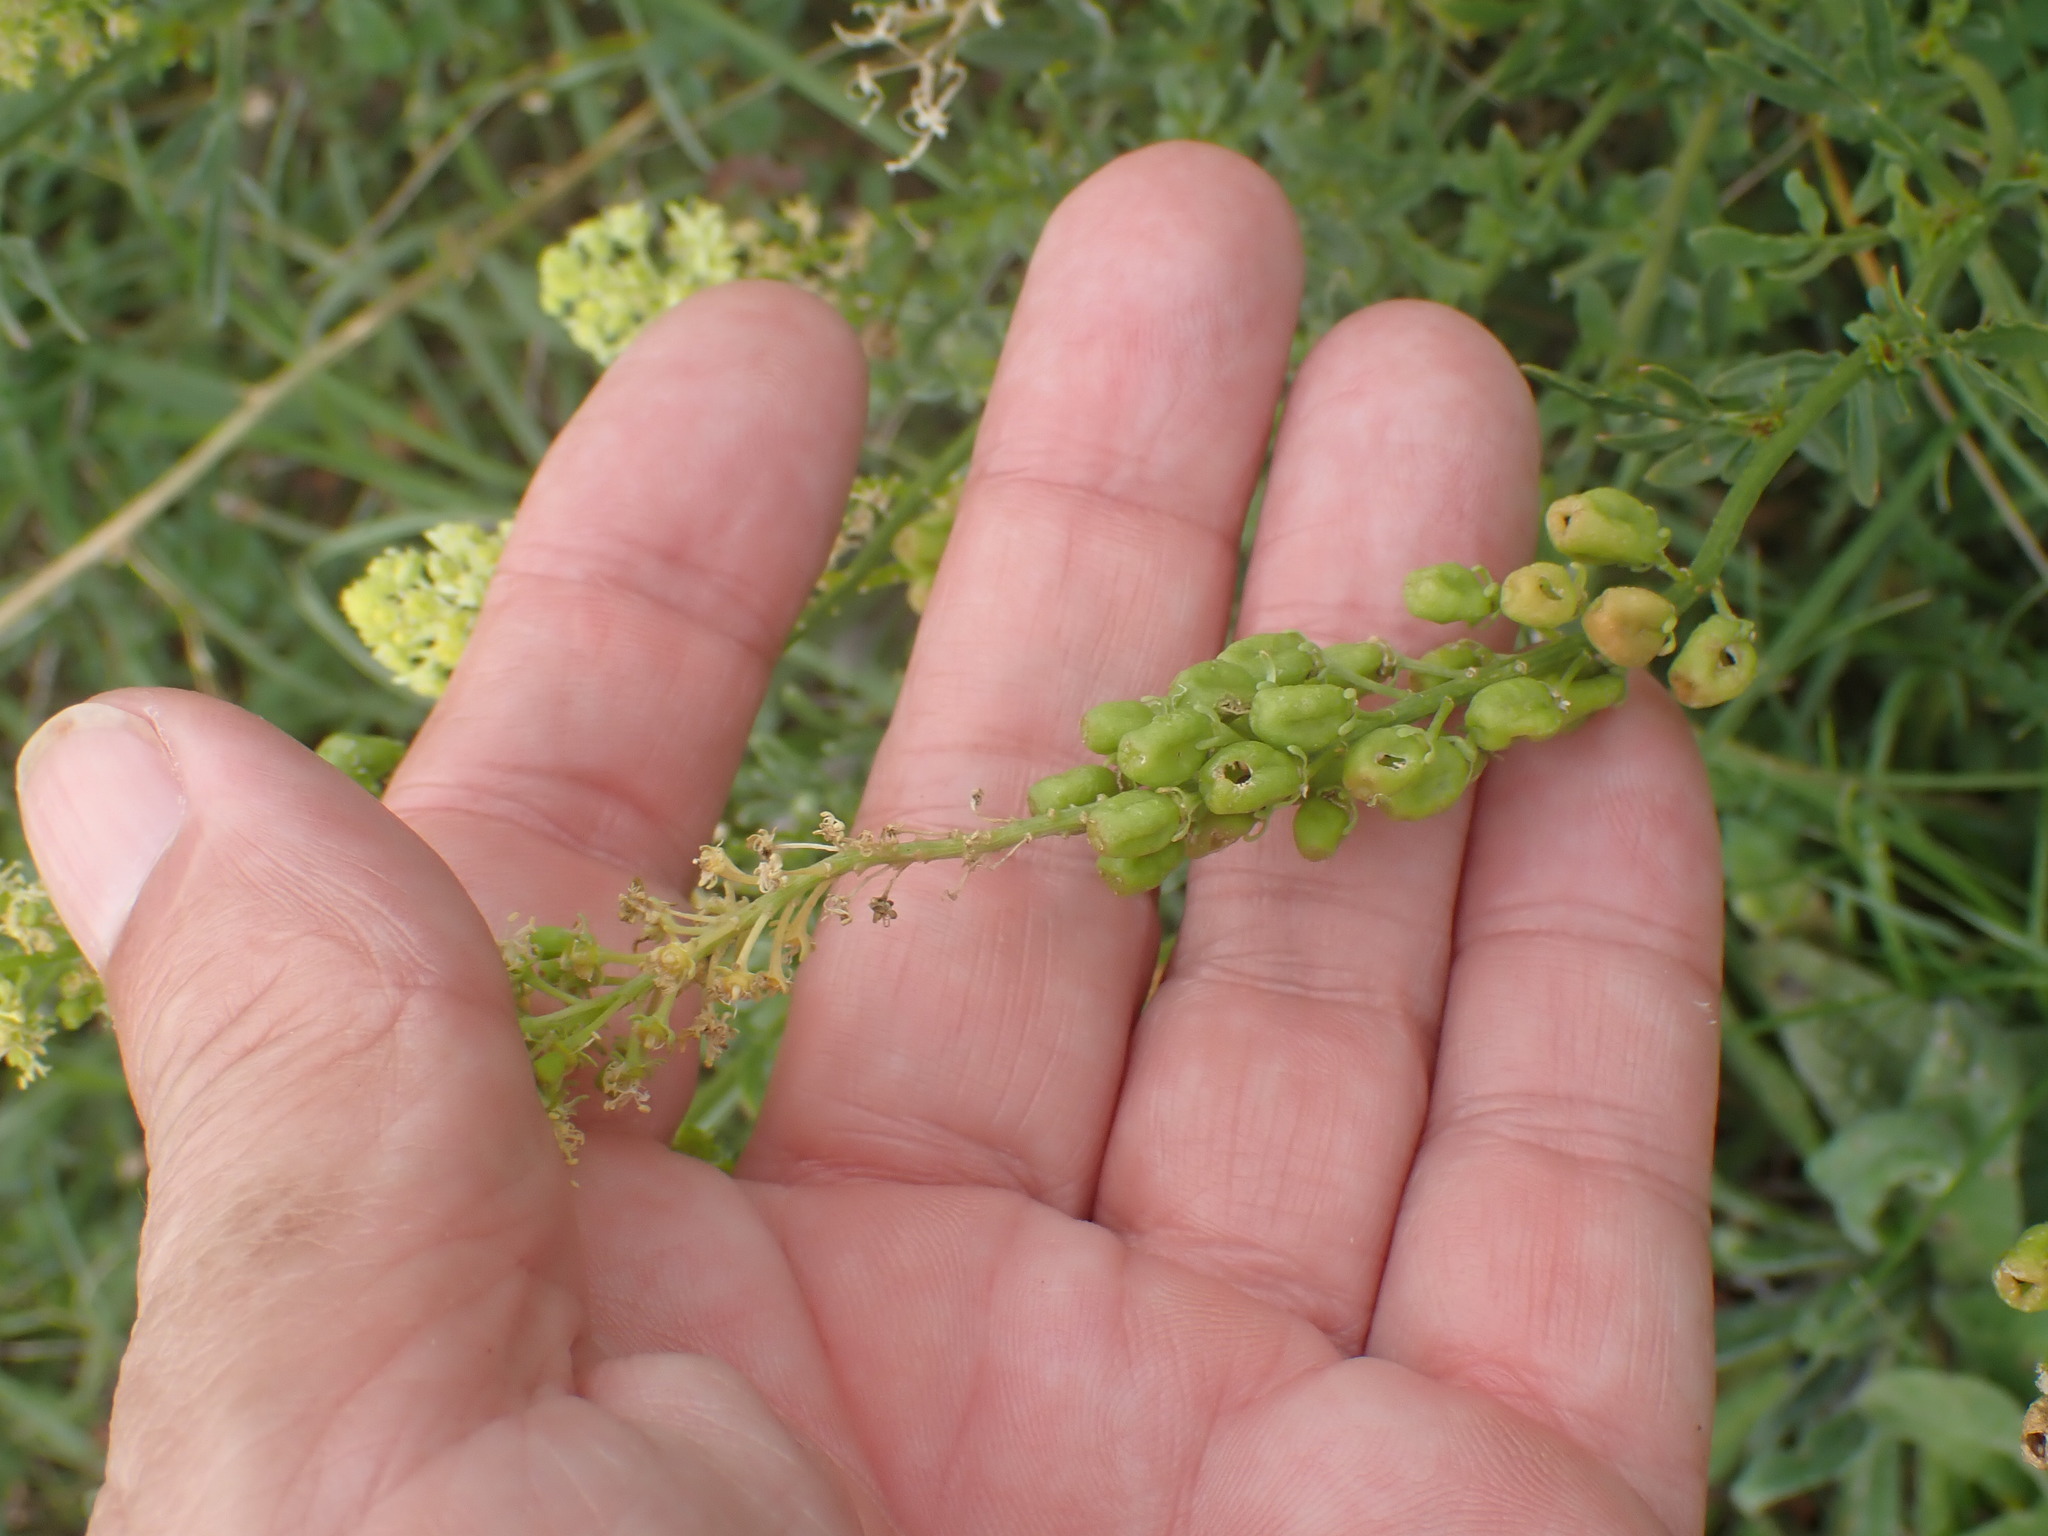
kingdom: Plantae
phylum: Tracheophyta
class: Magnoliopsida
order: Brassicales
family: Resedaceae
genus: Reseda
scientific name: Reseda lutea
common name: Wild mignonette
